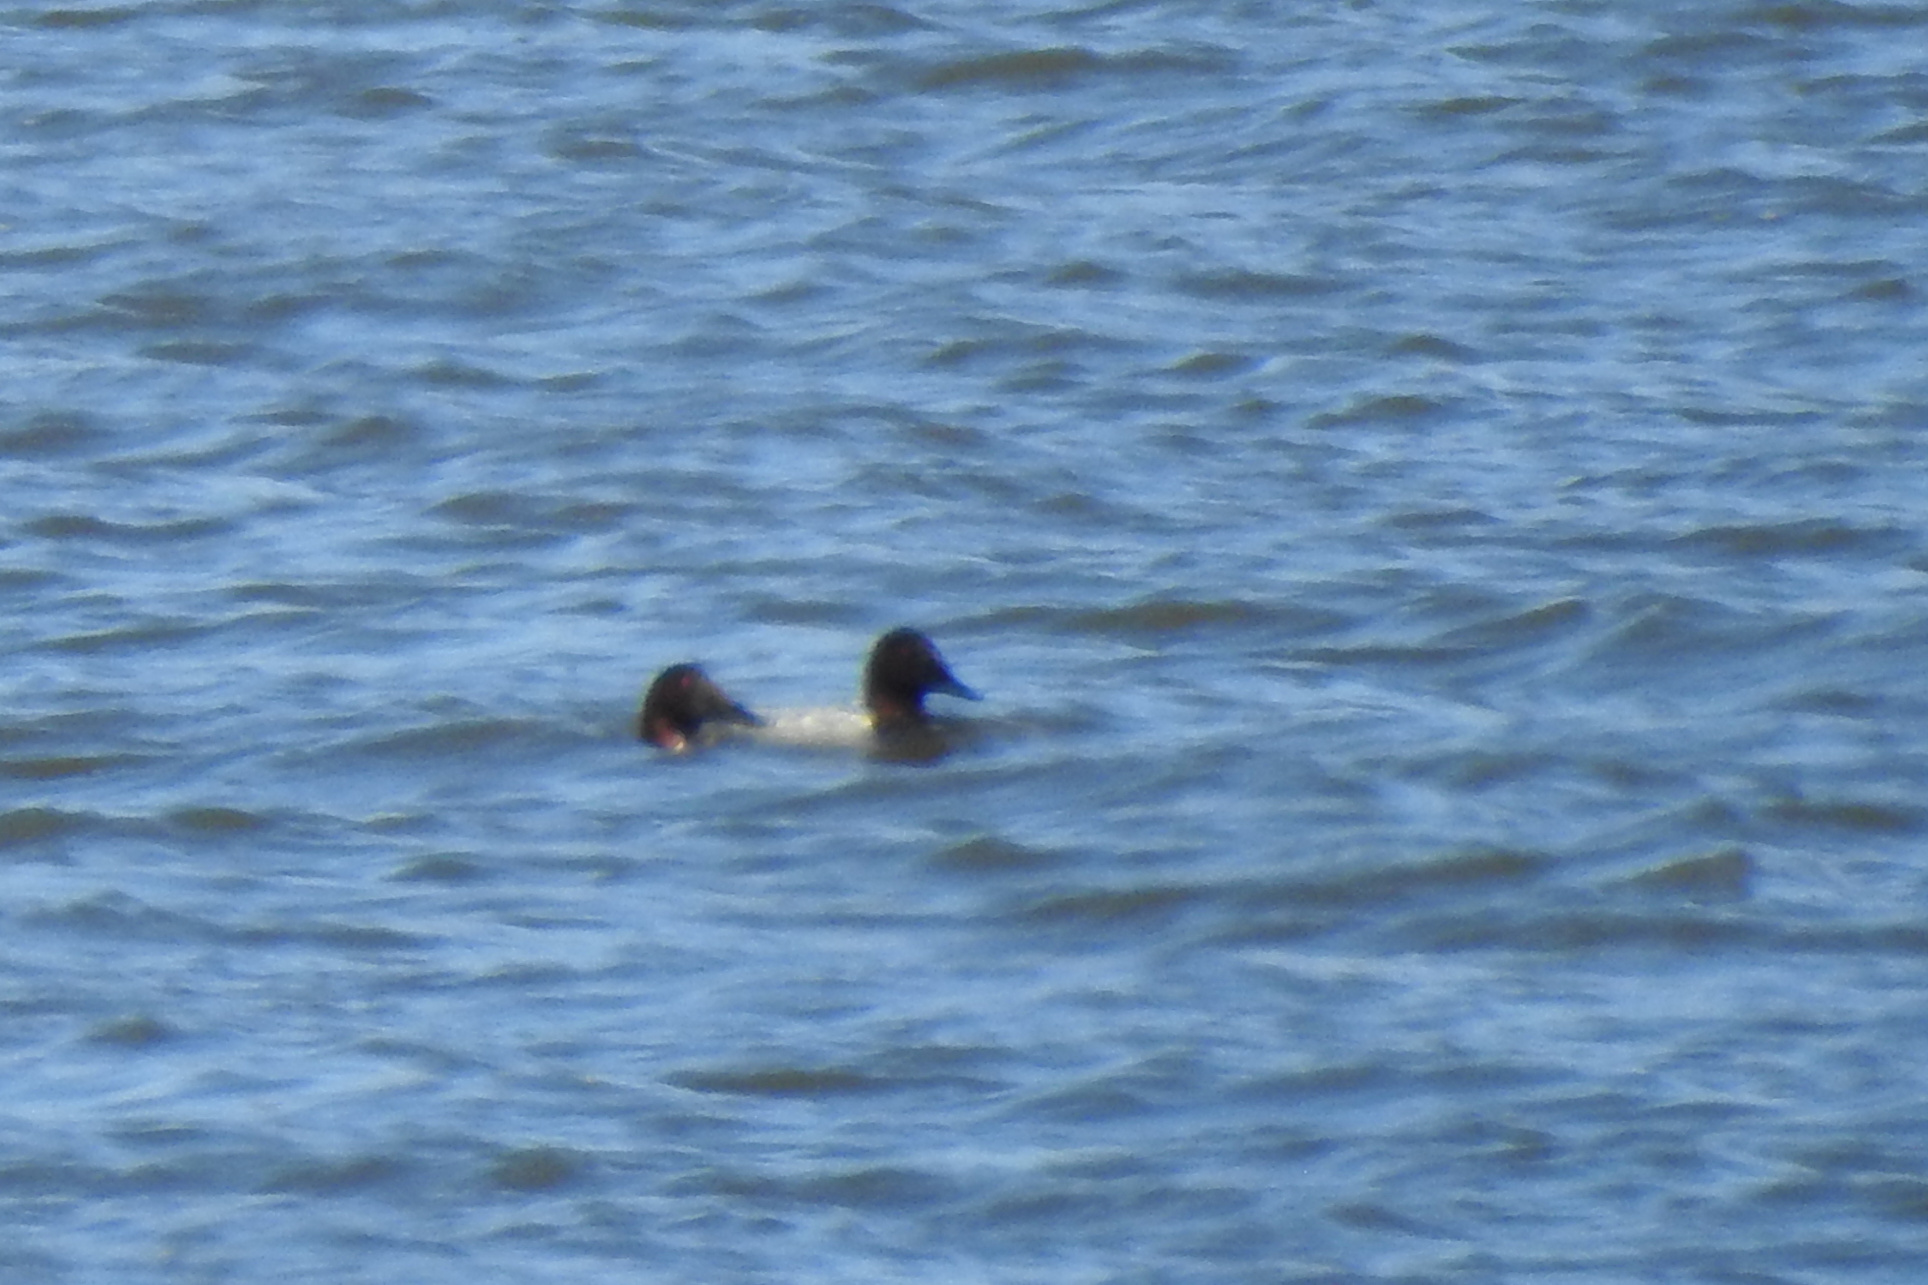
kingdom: Animalia
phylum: Chordata
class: Aves
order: Anseriformes
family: Anatidae
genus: Aythya
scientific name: Aythya valisineria
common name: Canvasback
